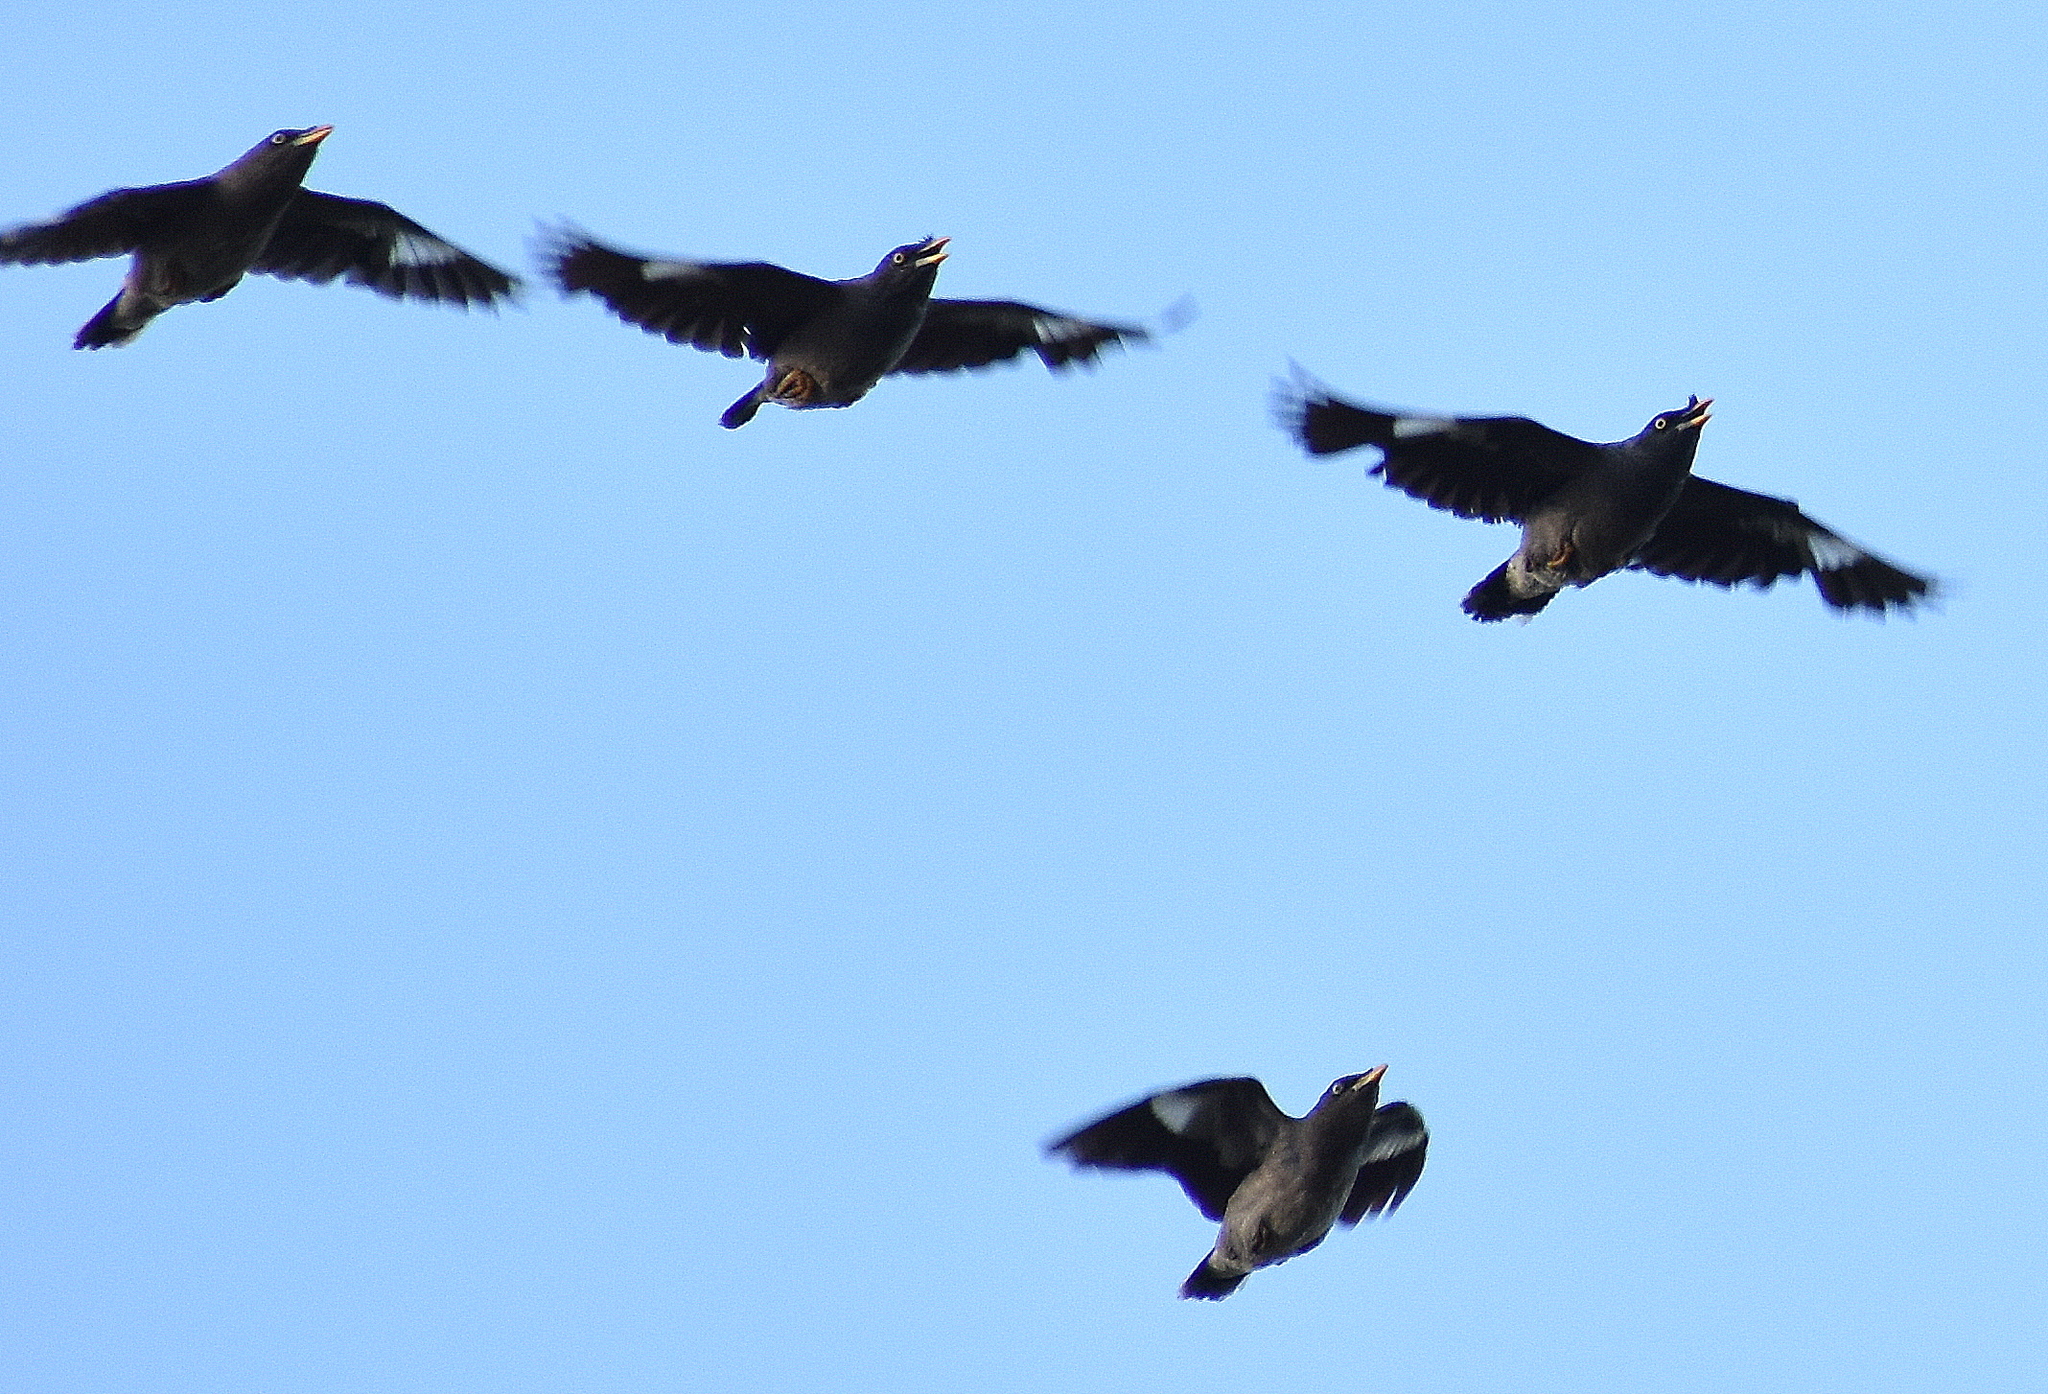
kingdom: Animalia
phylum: Chordata
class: Aves
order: Passeriformes
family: Sturnidae
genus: Acridotheres
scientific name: Acridotheres fuscus
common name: Jungle myna
